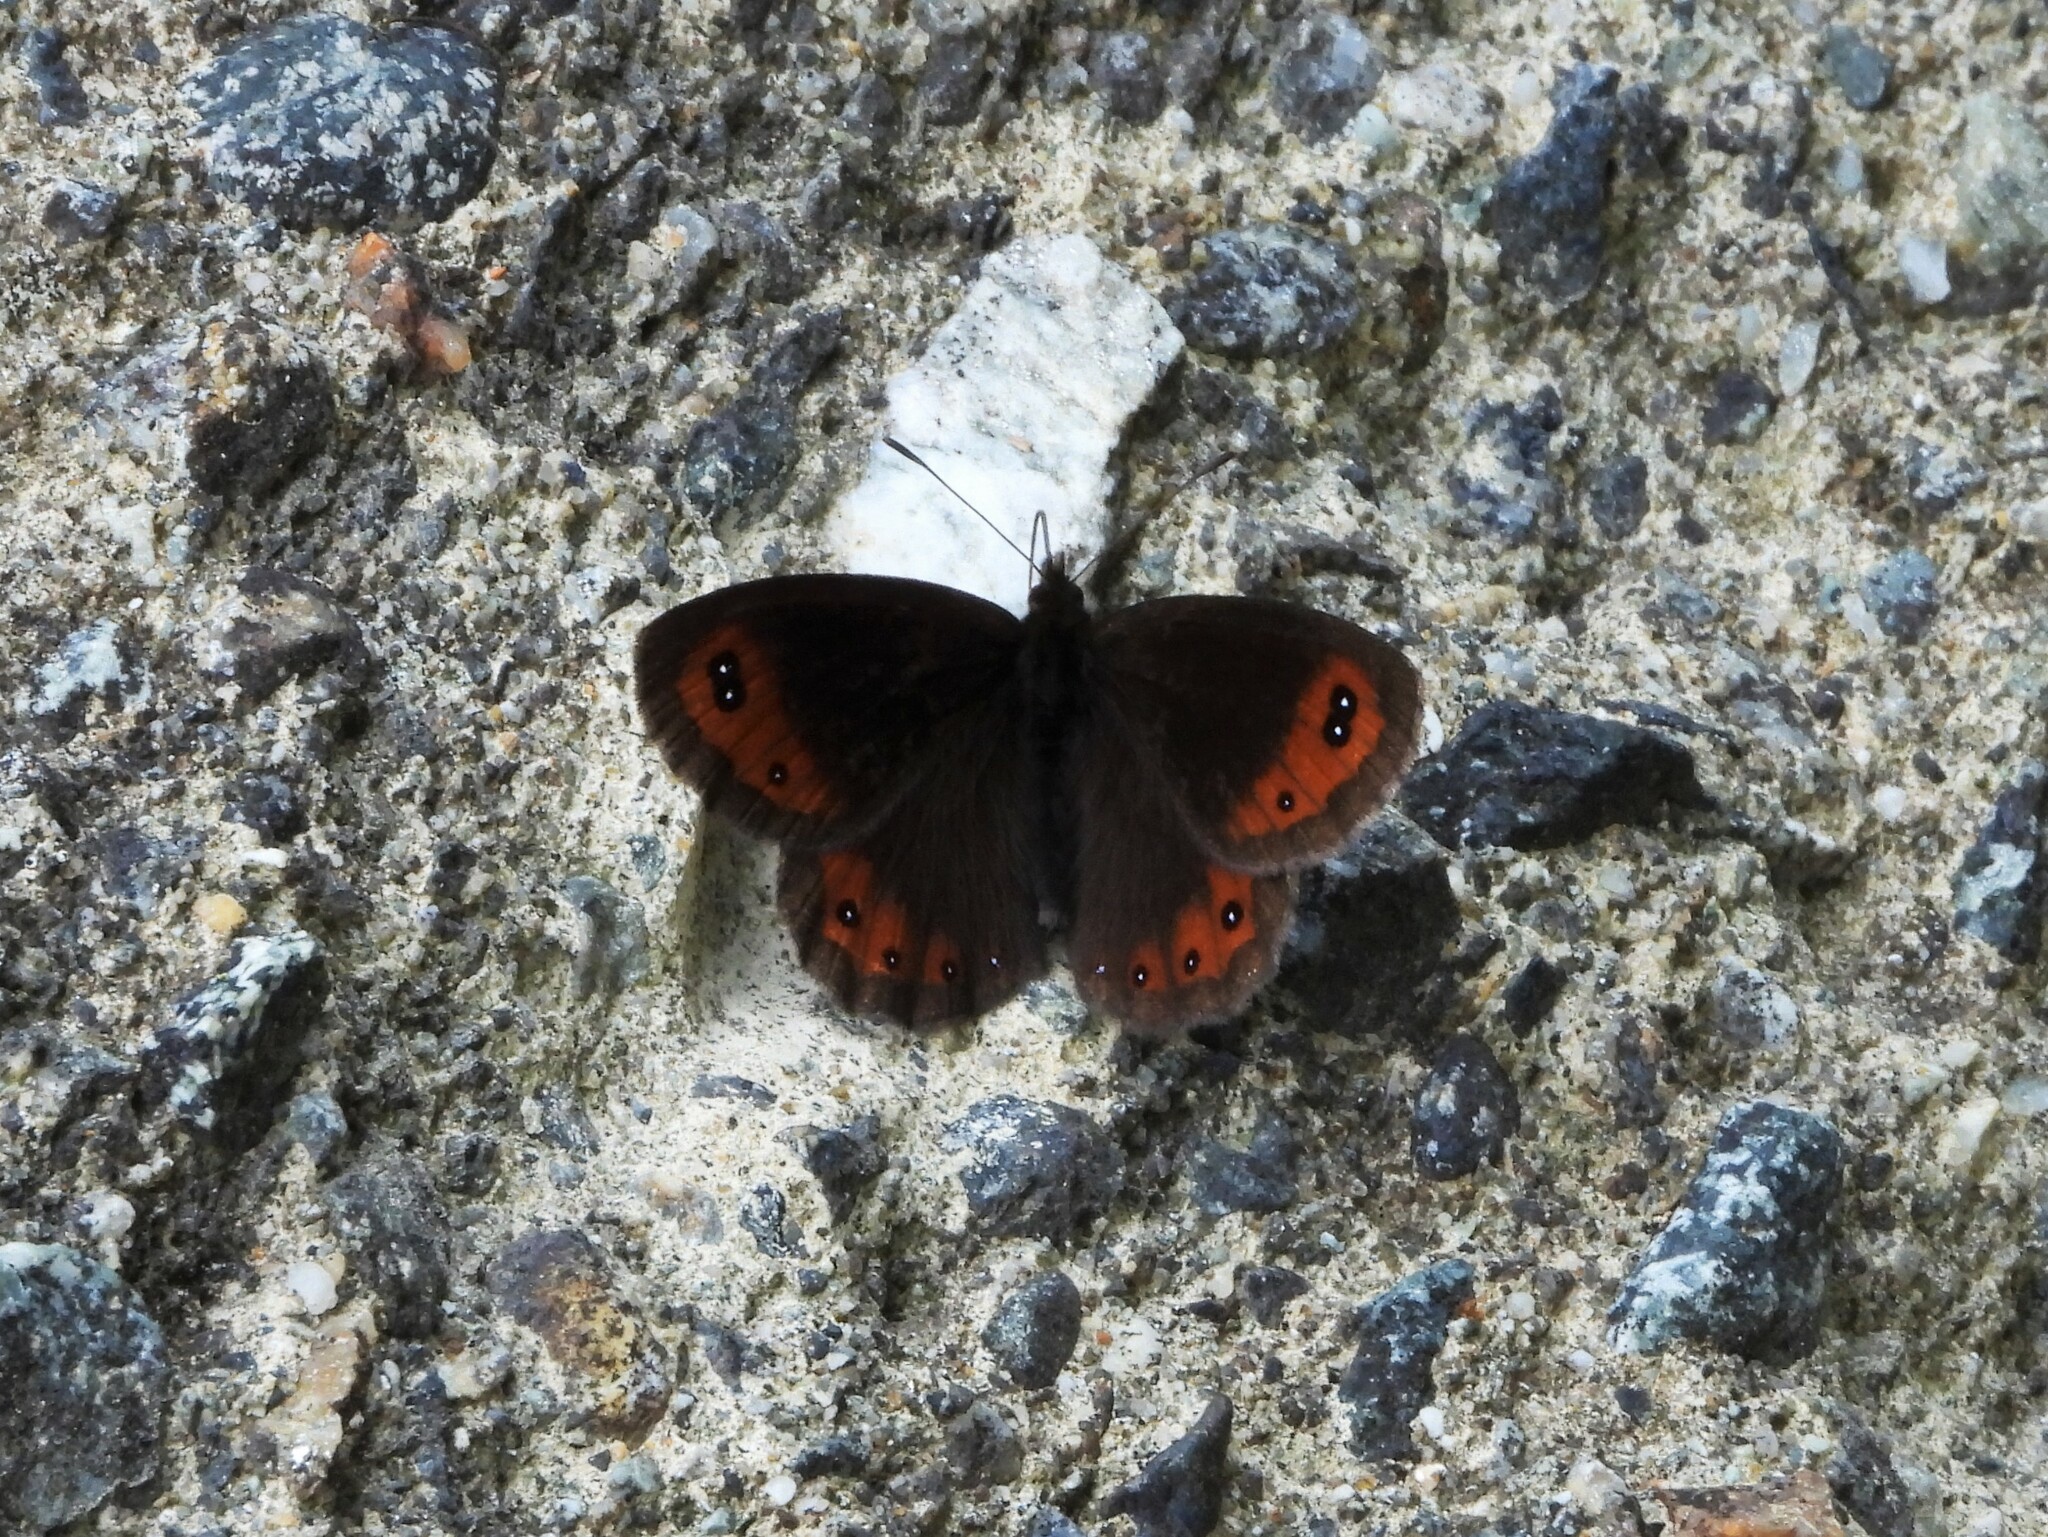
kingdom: Animalia
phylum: Arthropoda
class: Insecta
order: Lepidoptera
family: Nymphalidae
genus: Erebia
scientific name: Erebia montanus
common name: Marbled ringlet
